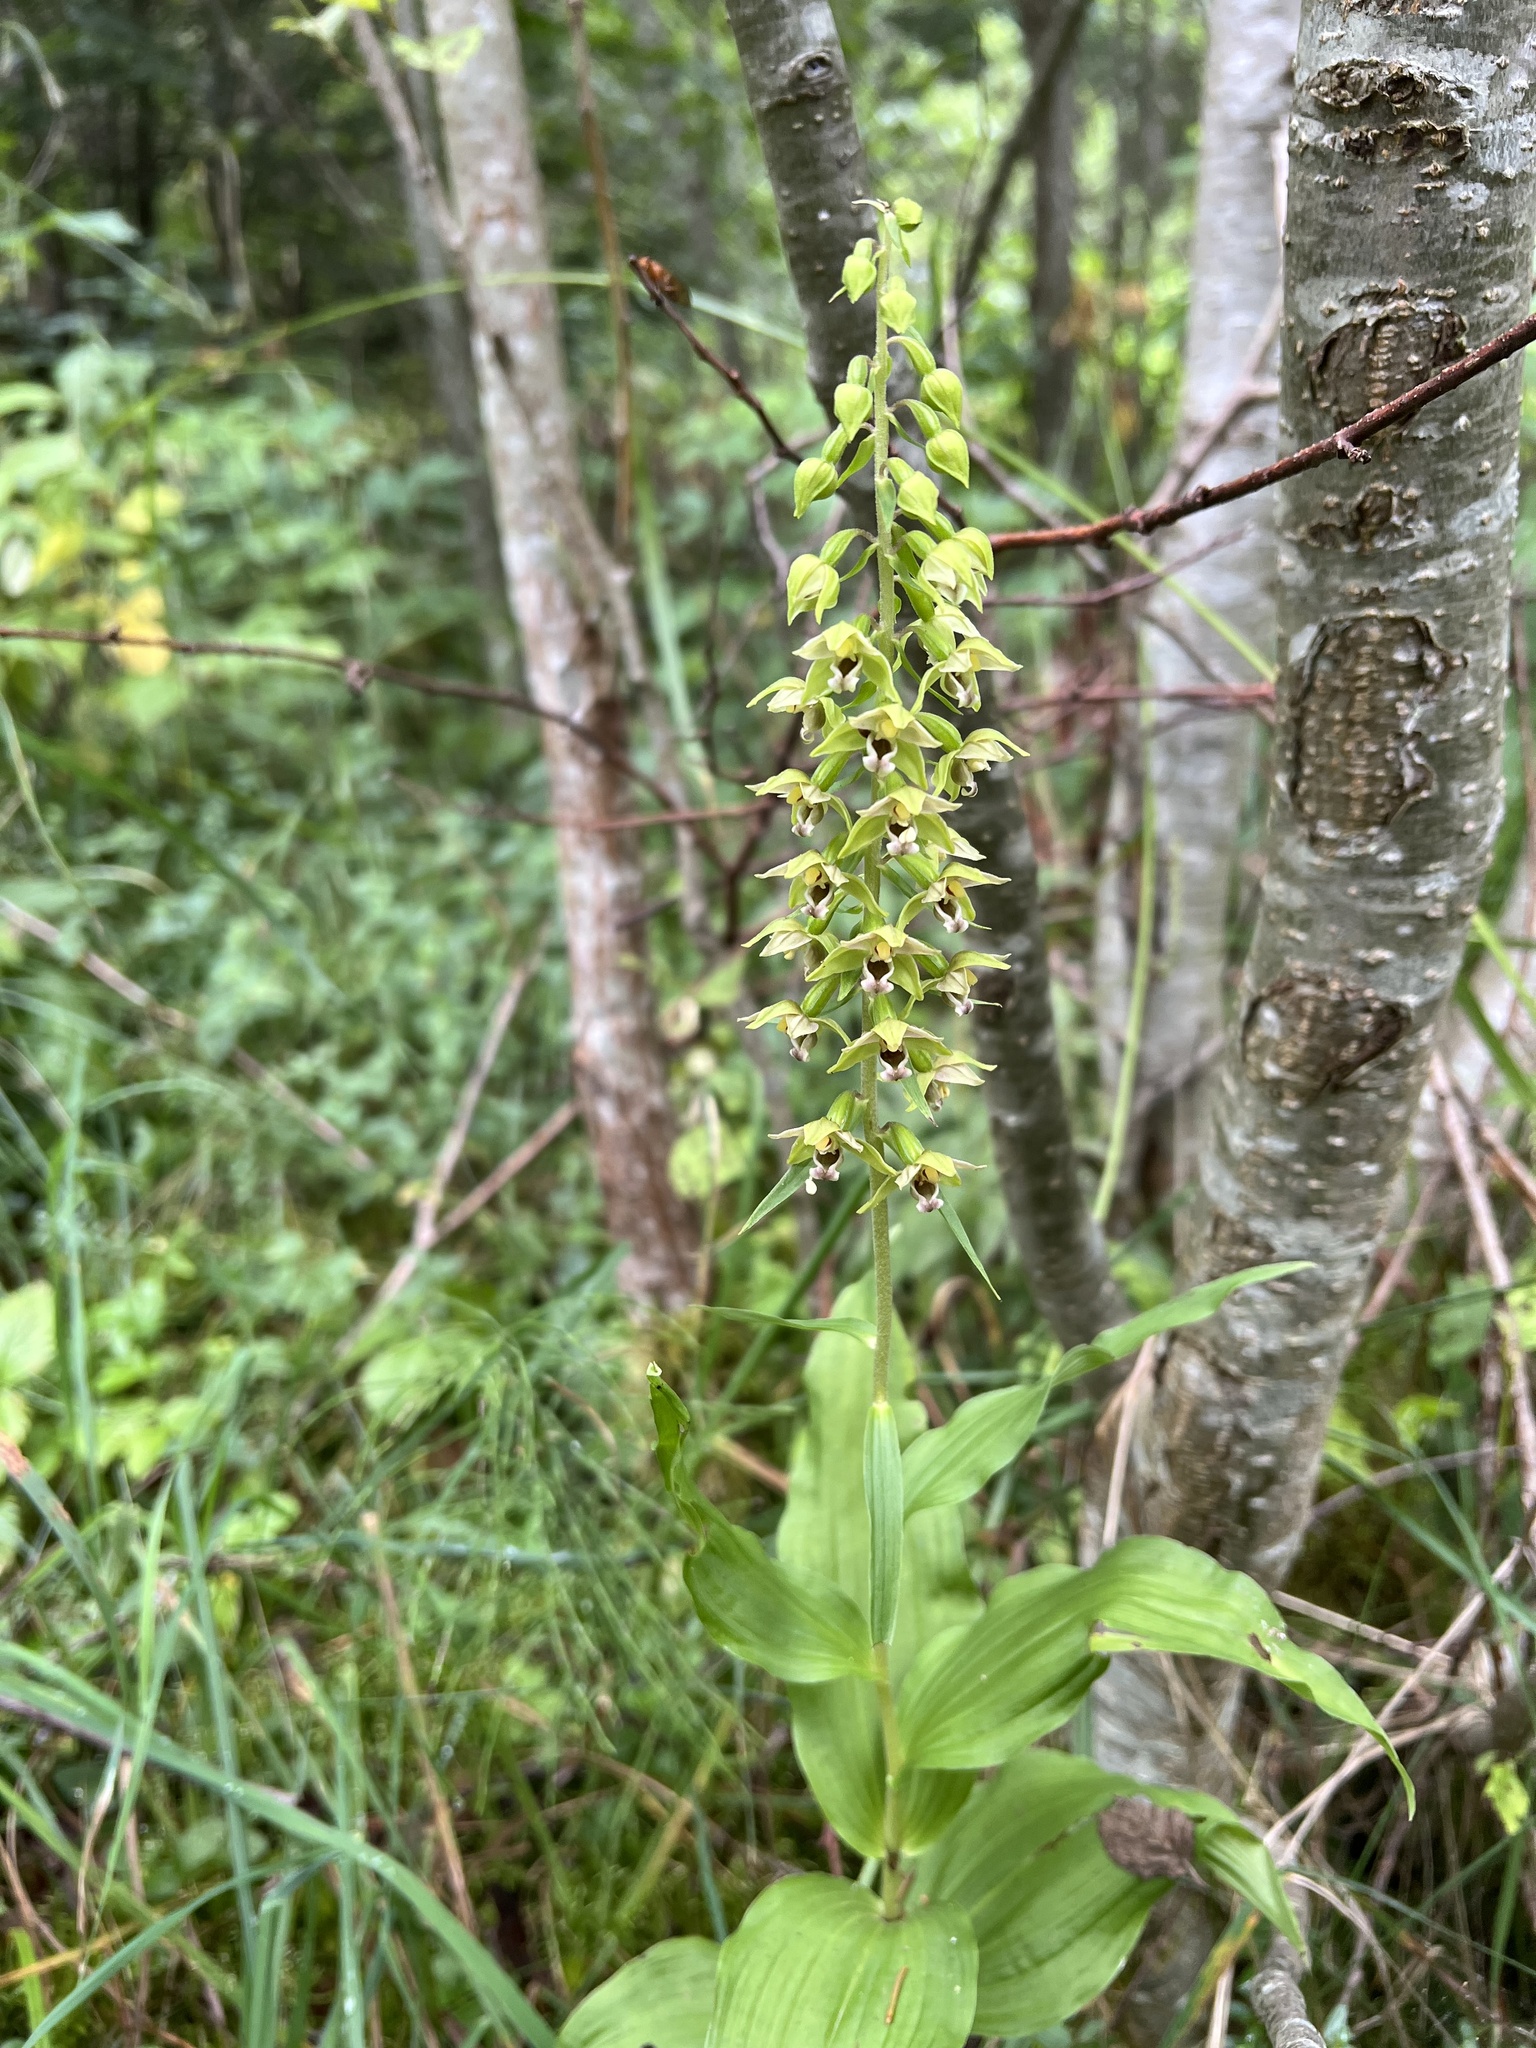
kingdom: Plantae
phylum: Tracheophyta
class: Liliopsida
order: Asparagales
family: Orchidaceae
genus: Epipactis
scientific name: Epipactis helleborine
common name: Broad-leaved helleborine
